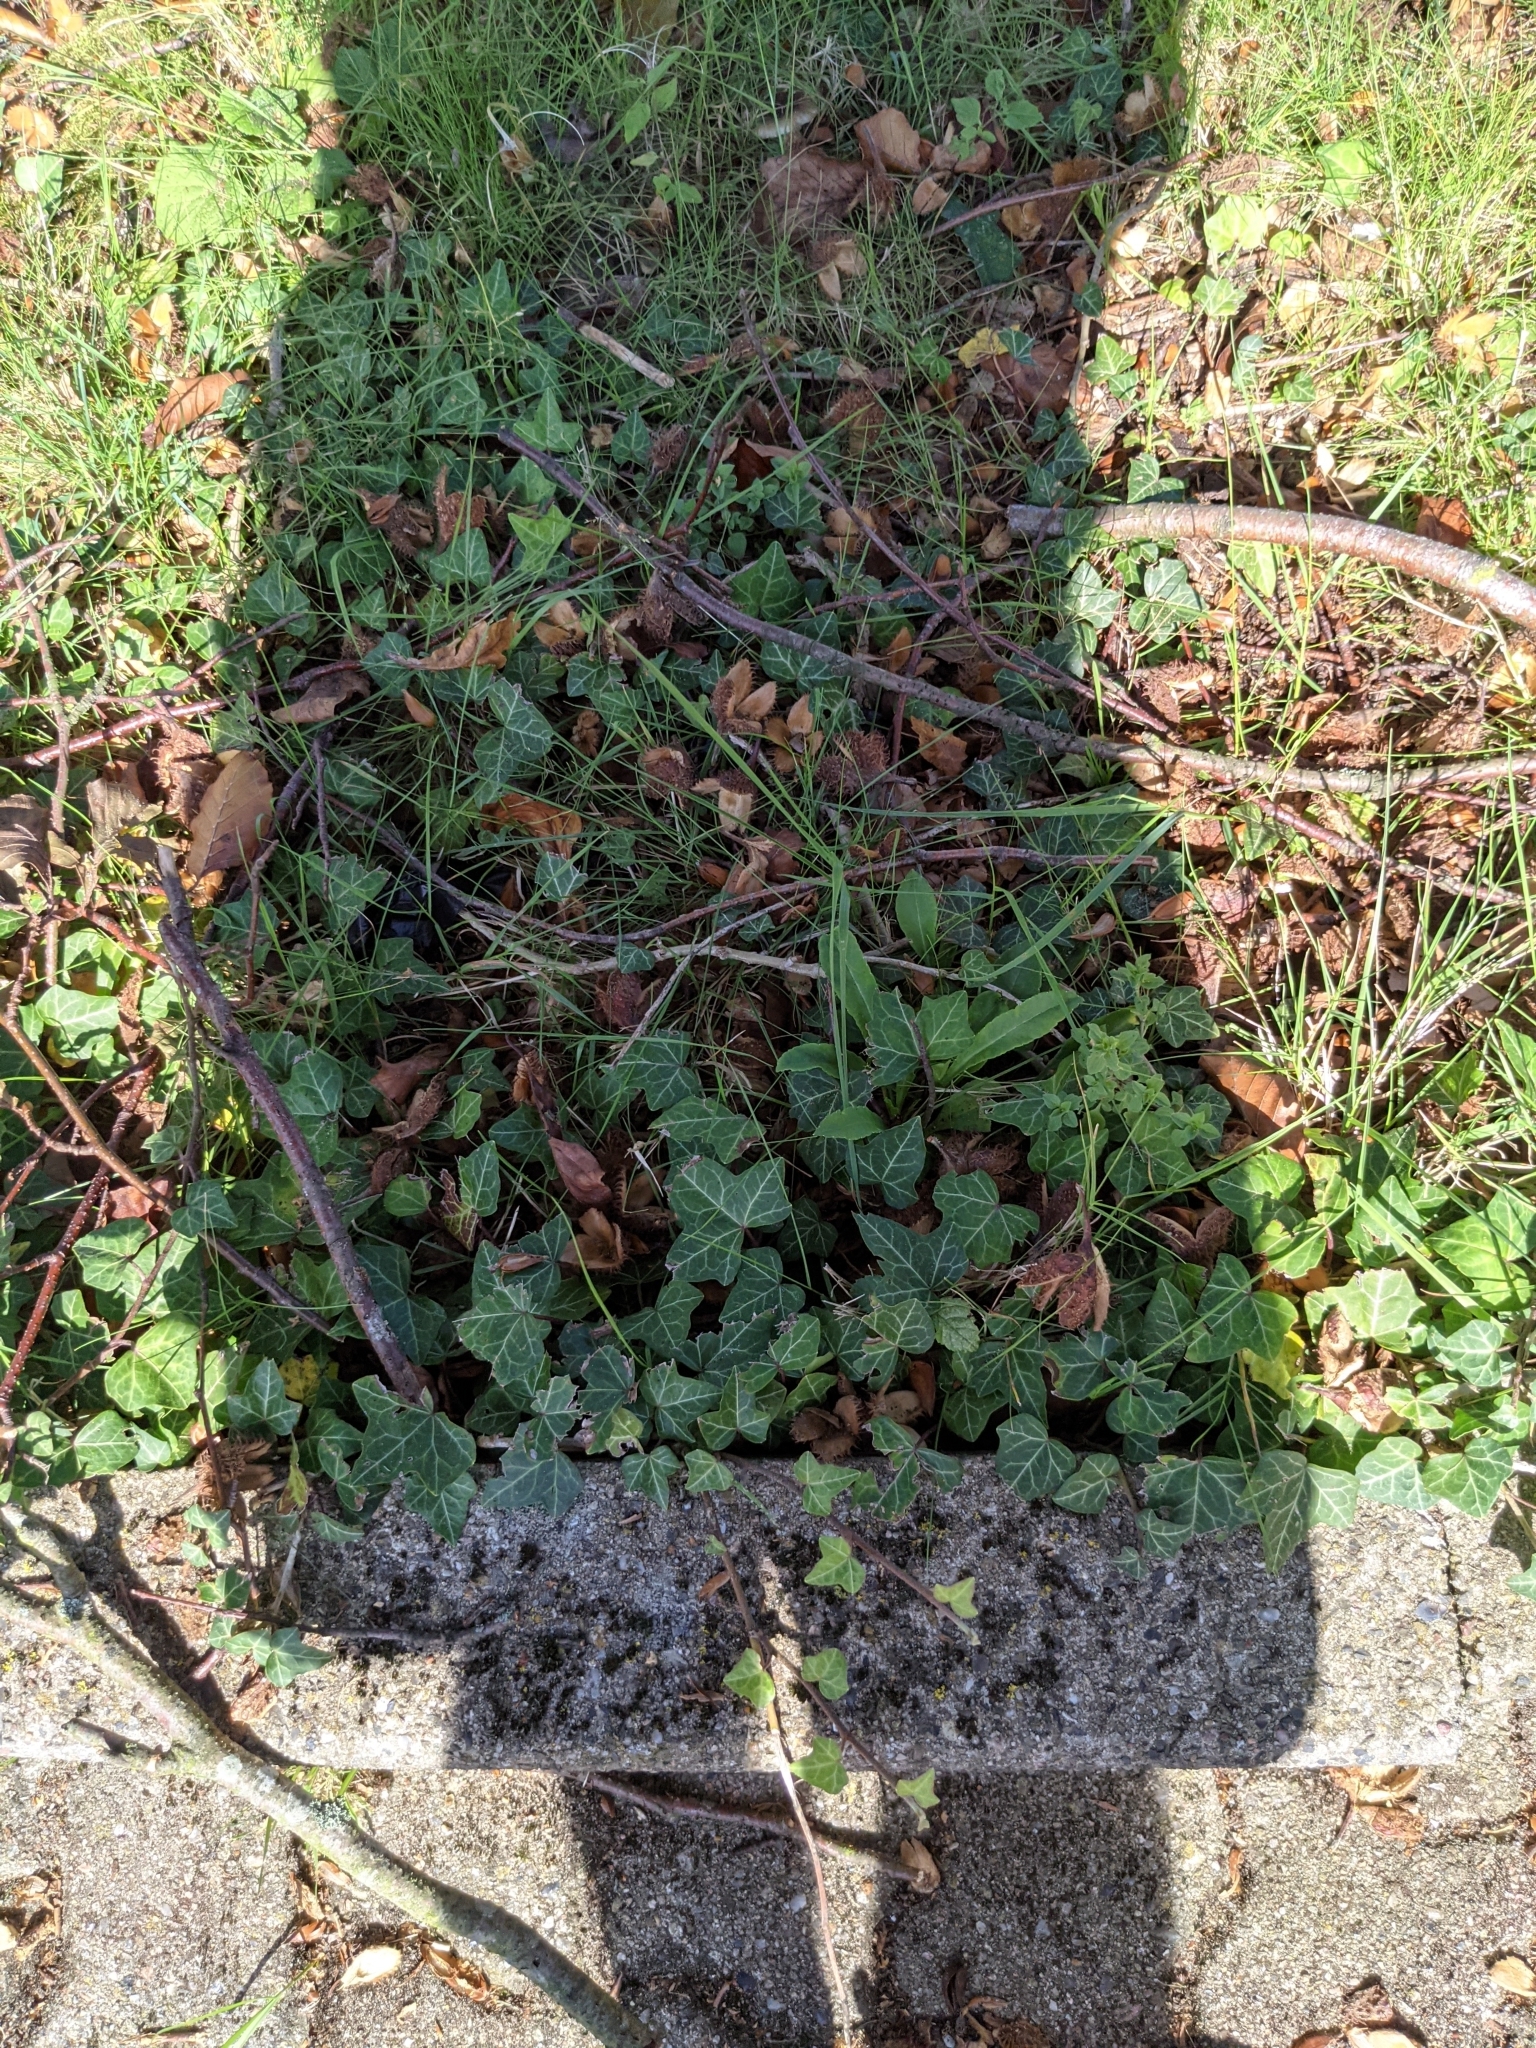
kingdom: Plantae
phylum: Tracheophyta
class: Magnoliopsida
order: Apiales
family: Araliaceae
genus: Hedera
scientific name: Hedera helix
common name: Ivy
